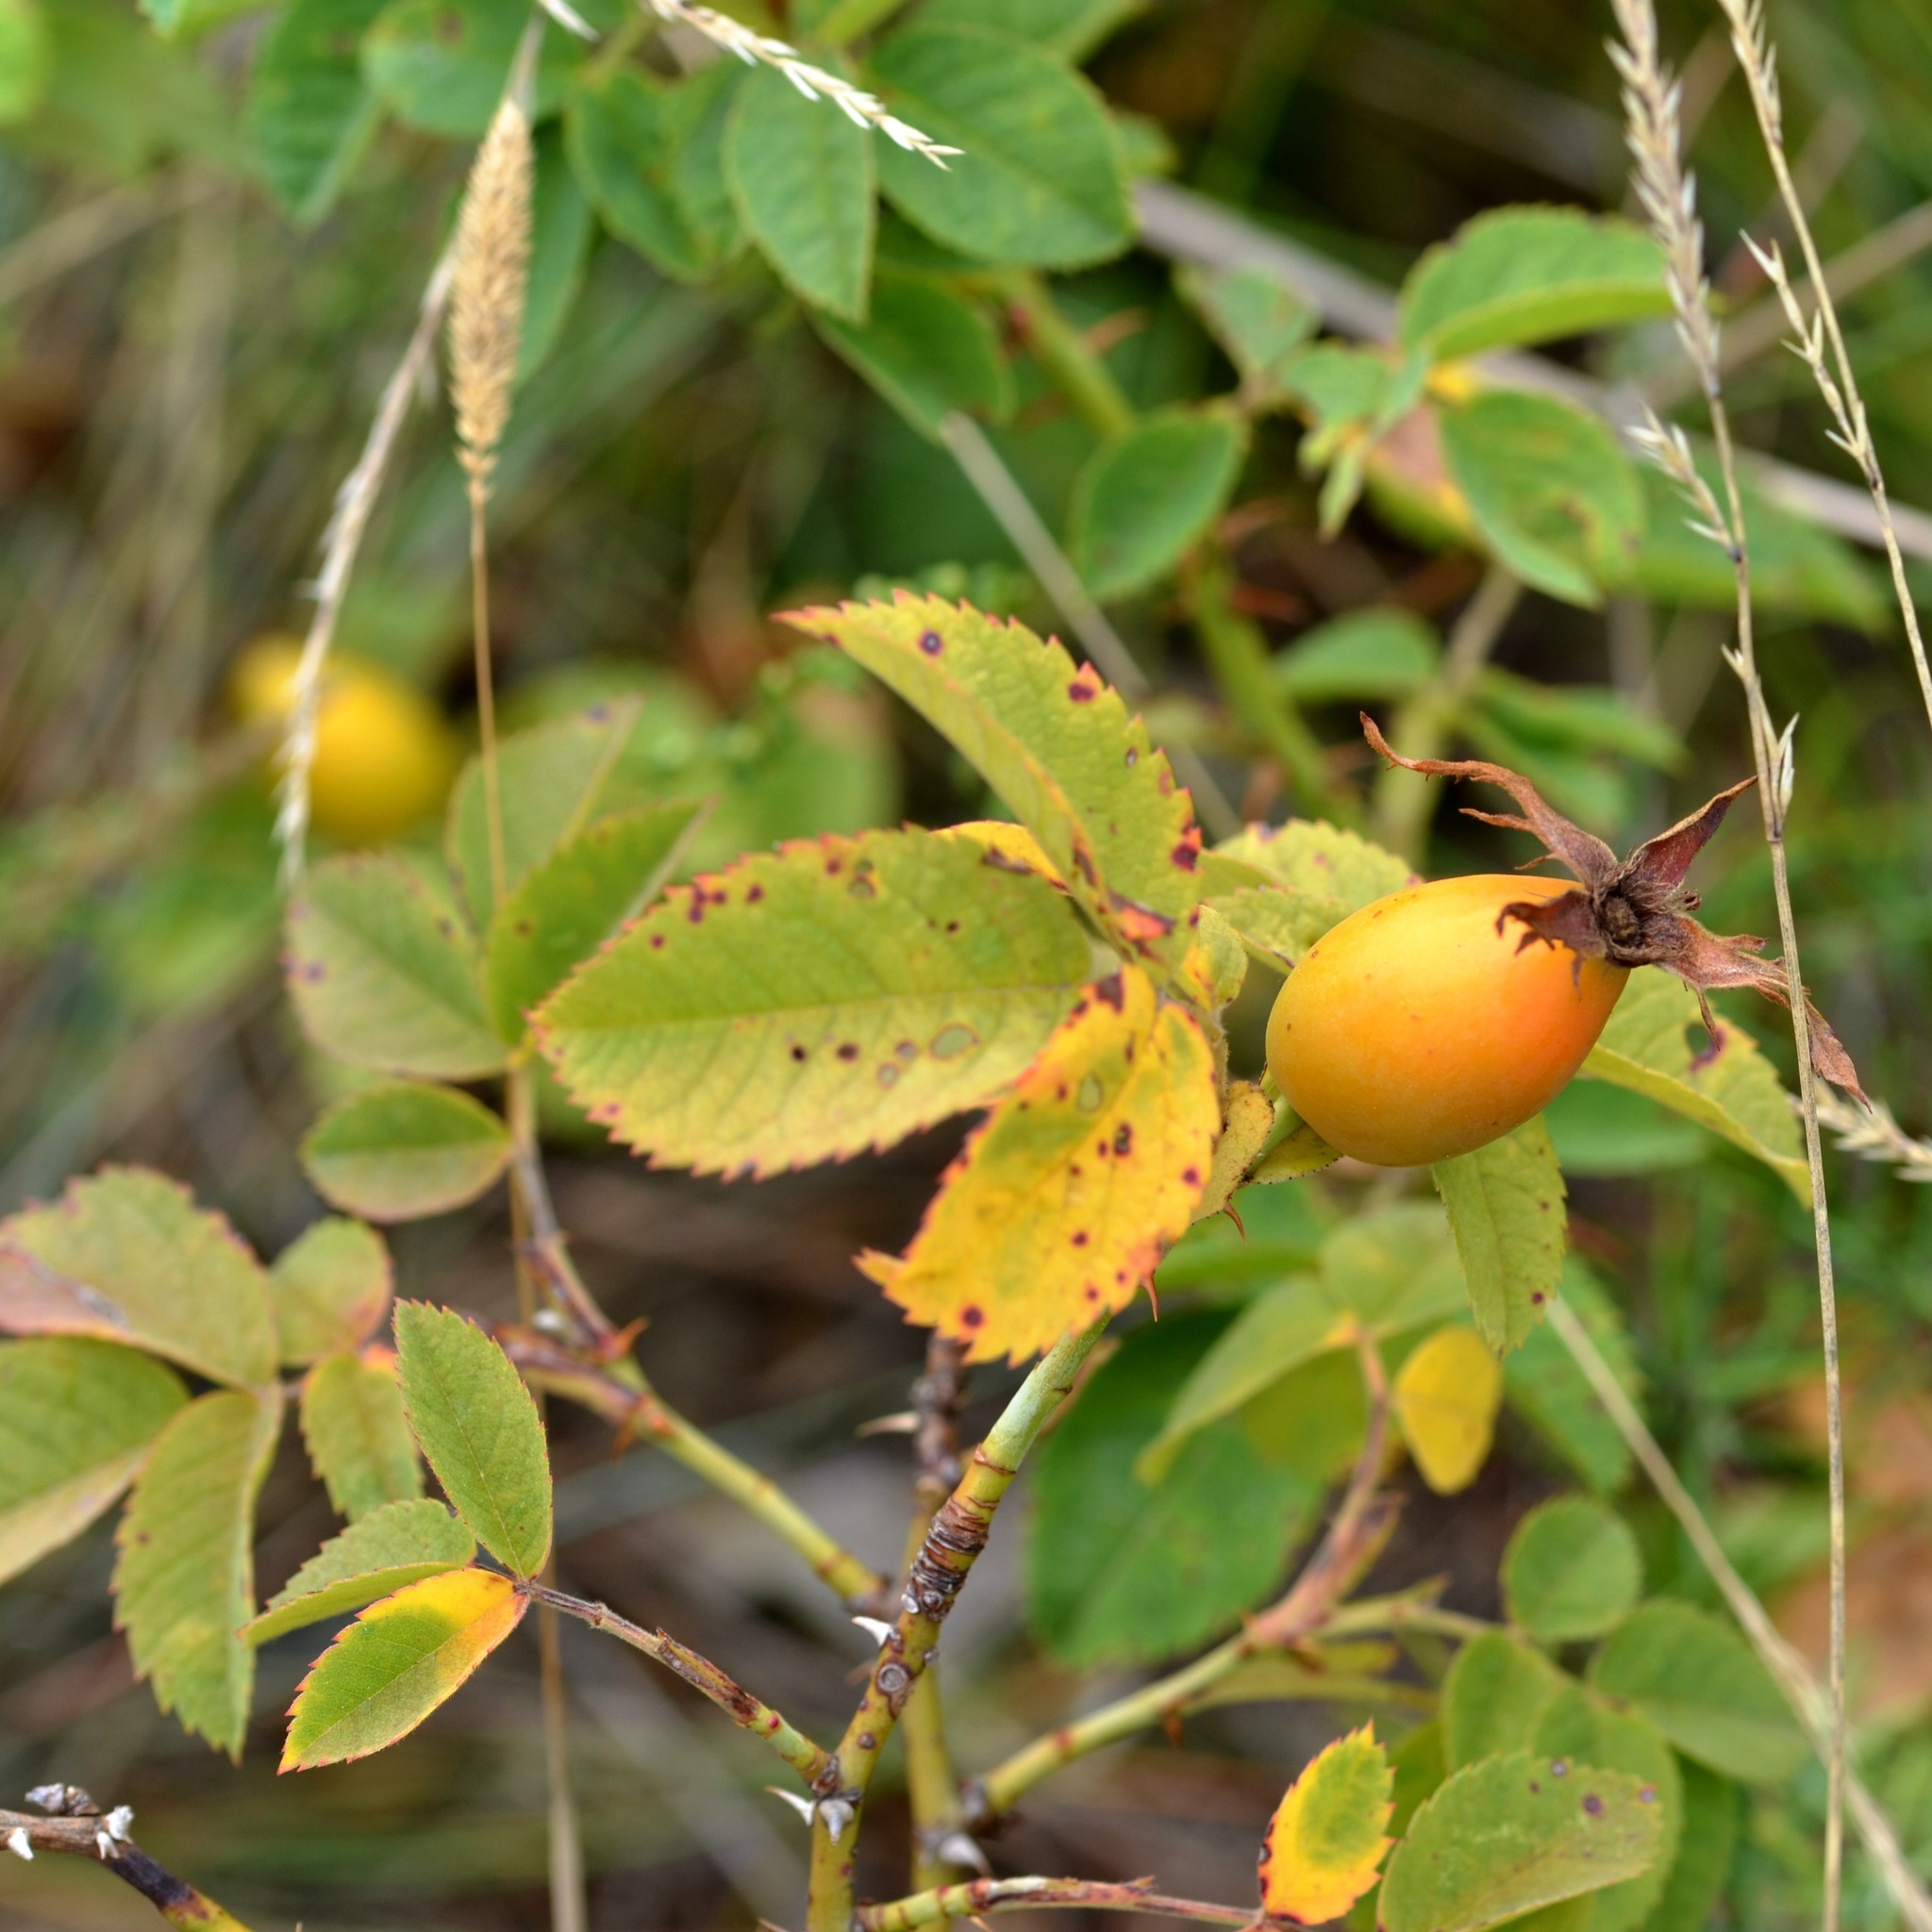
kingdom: Plantae
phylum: Tracheophyta
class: Magnoliopsida
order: Rosales
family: Rosaceae
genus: Rosa
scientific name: Rosa subcollina
